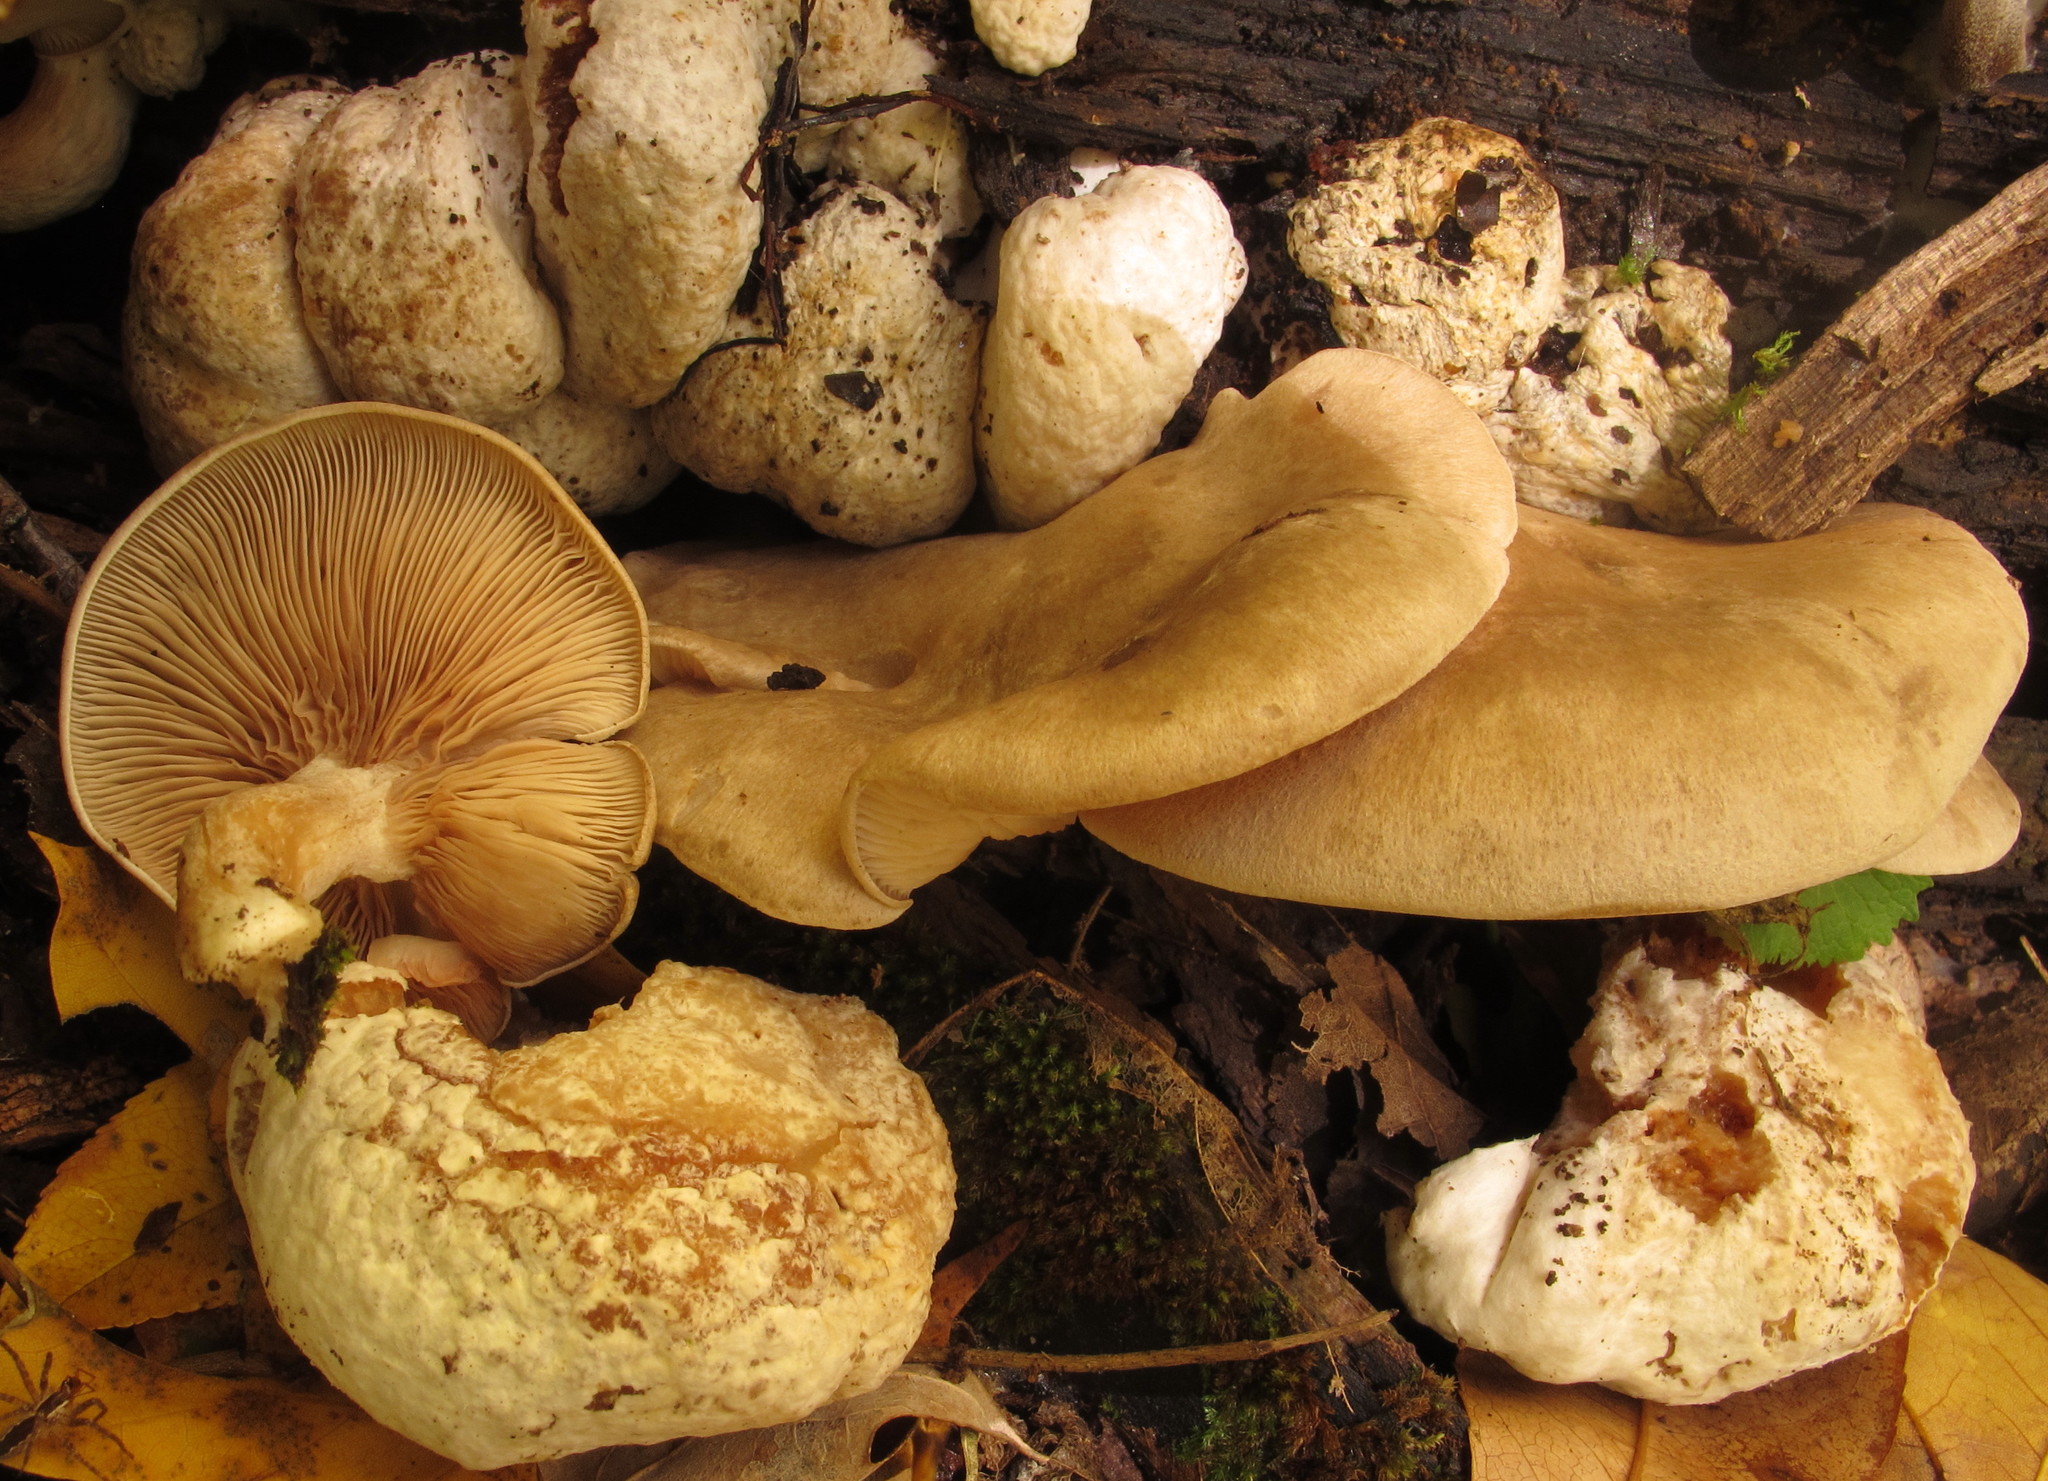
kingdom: Fungi
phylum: Basidiomycota
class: Agaricomycetes
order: Agaricales
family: Entolomataceae
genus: Entoloma
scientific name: Entoloma abortivum
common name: Aborted entoloma
